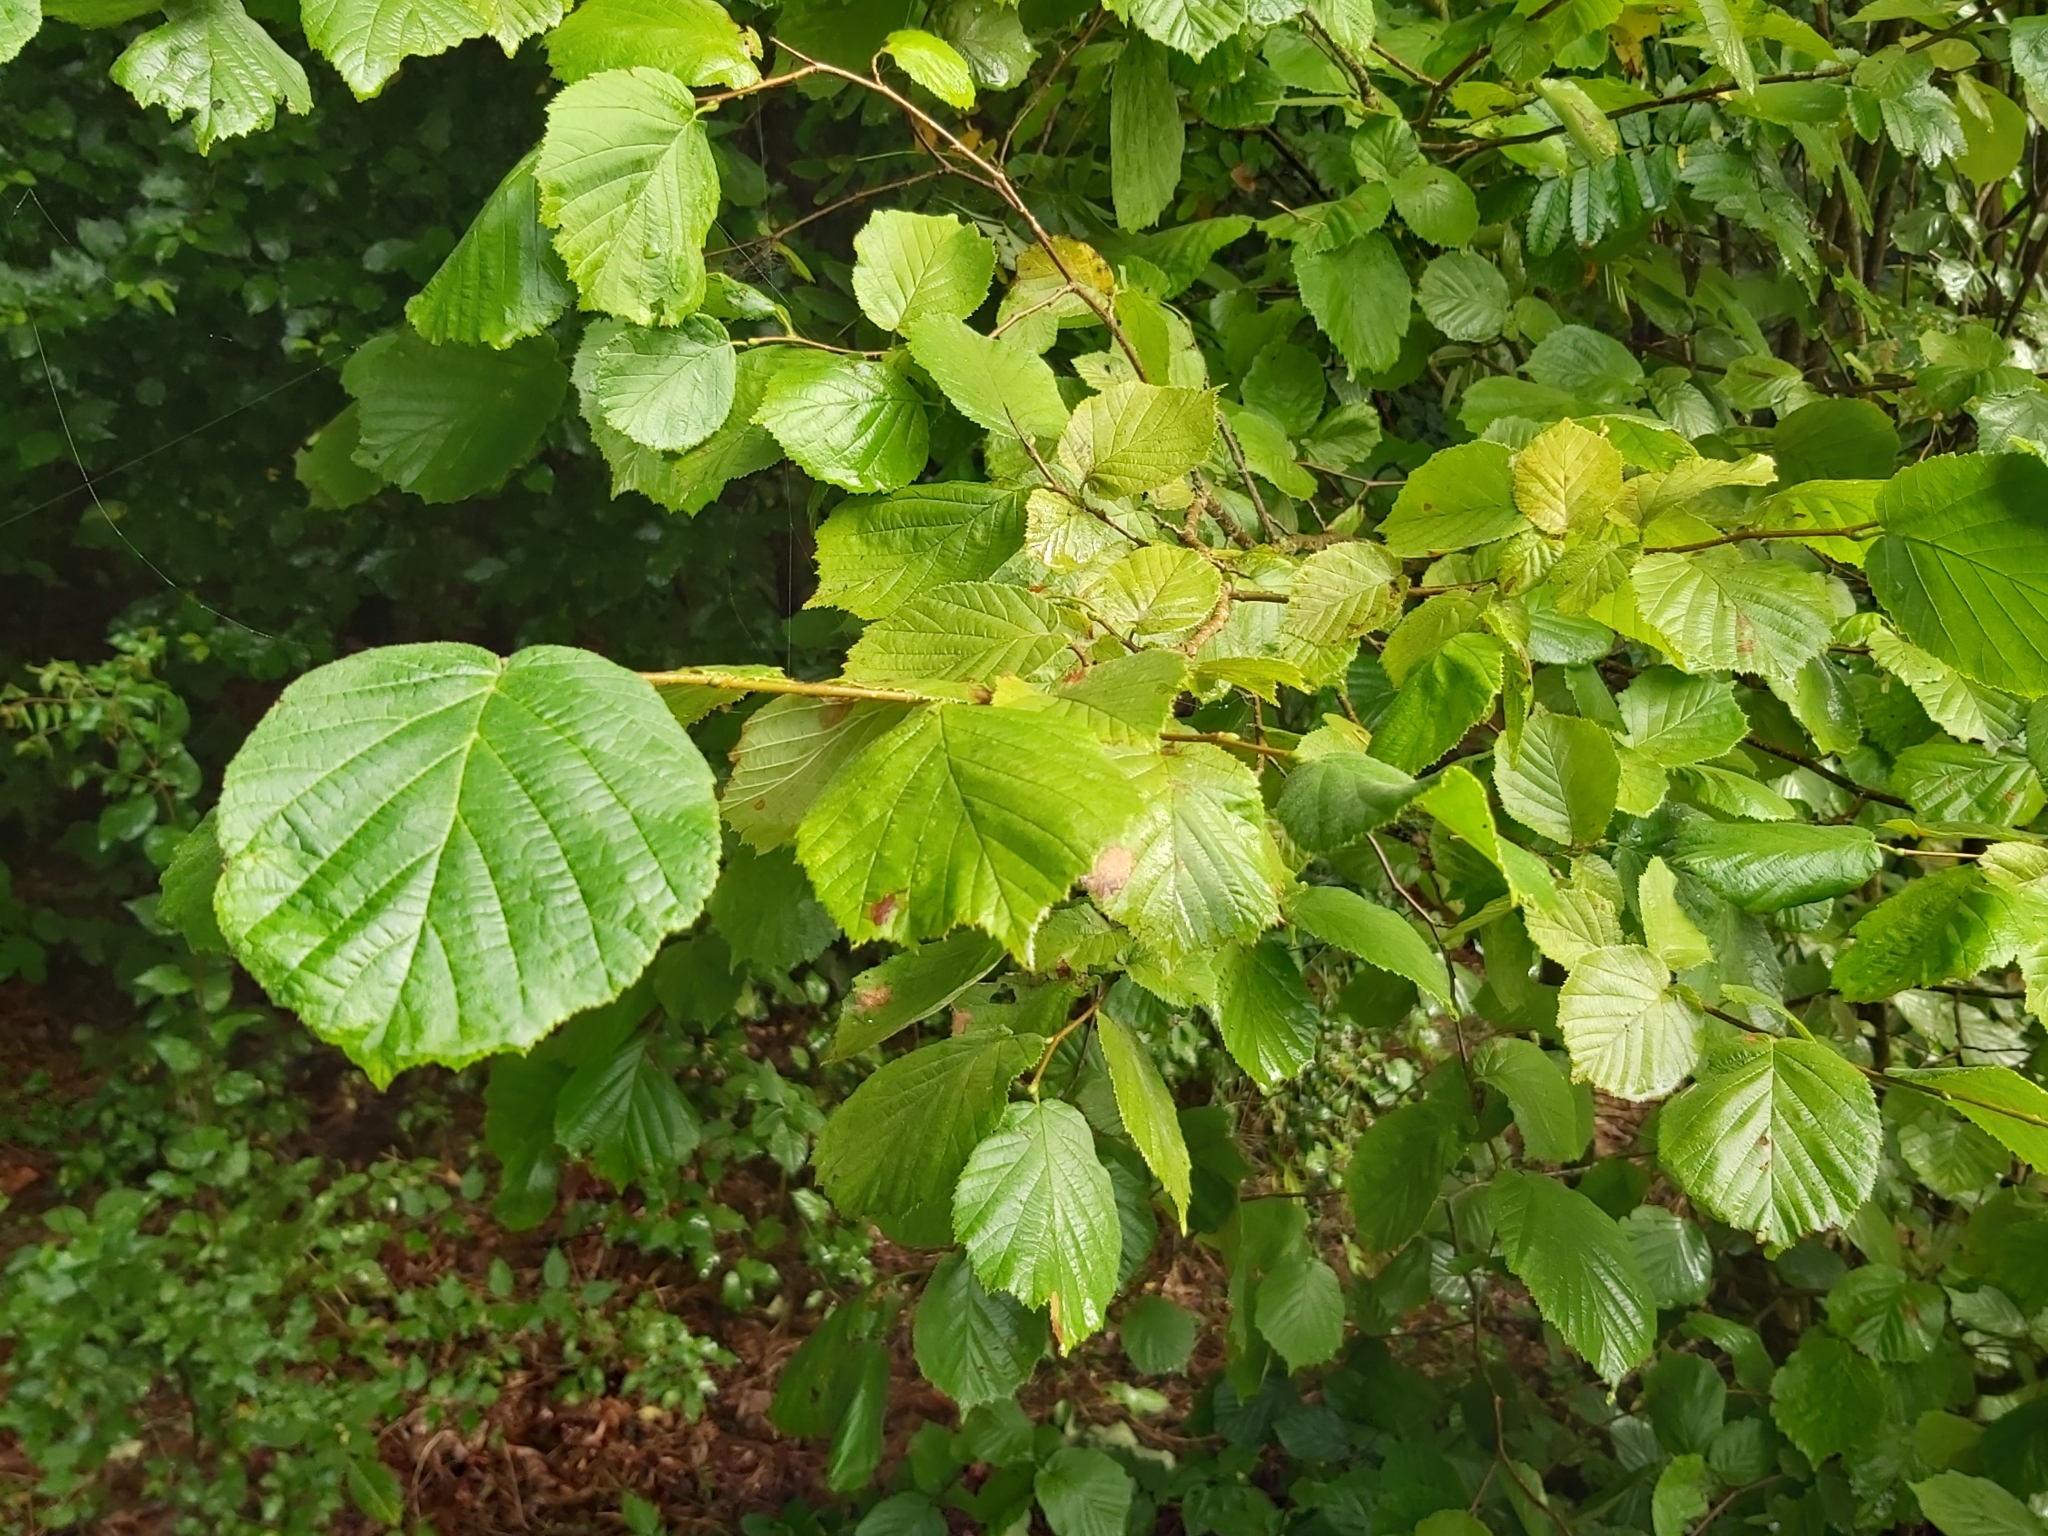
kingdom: Plantae
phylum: Tracheophyta
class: Magnoliopsida
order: Fagales
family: Betulaceae
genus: Corylus
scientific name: Corylus avellana
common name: European hazel
